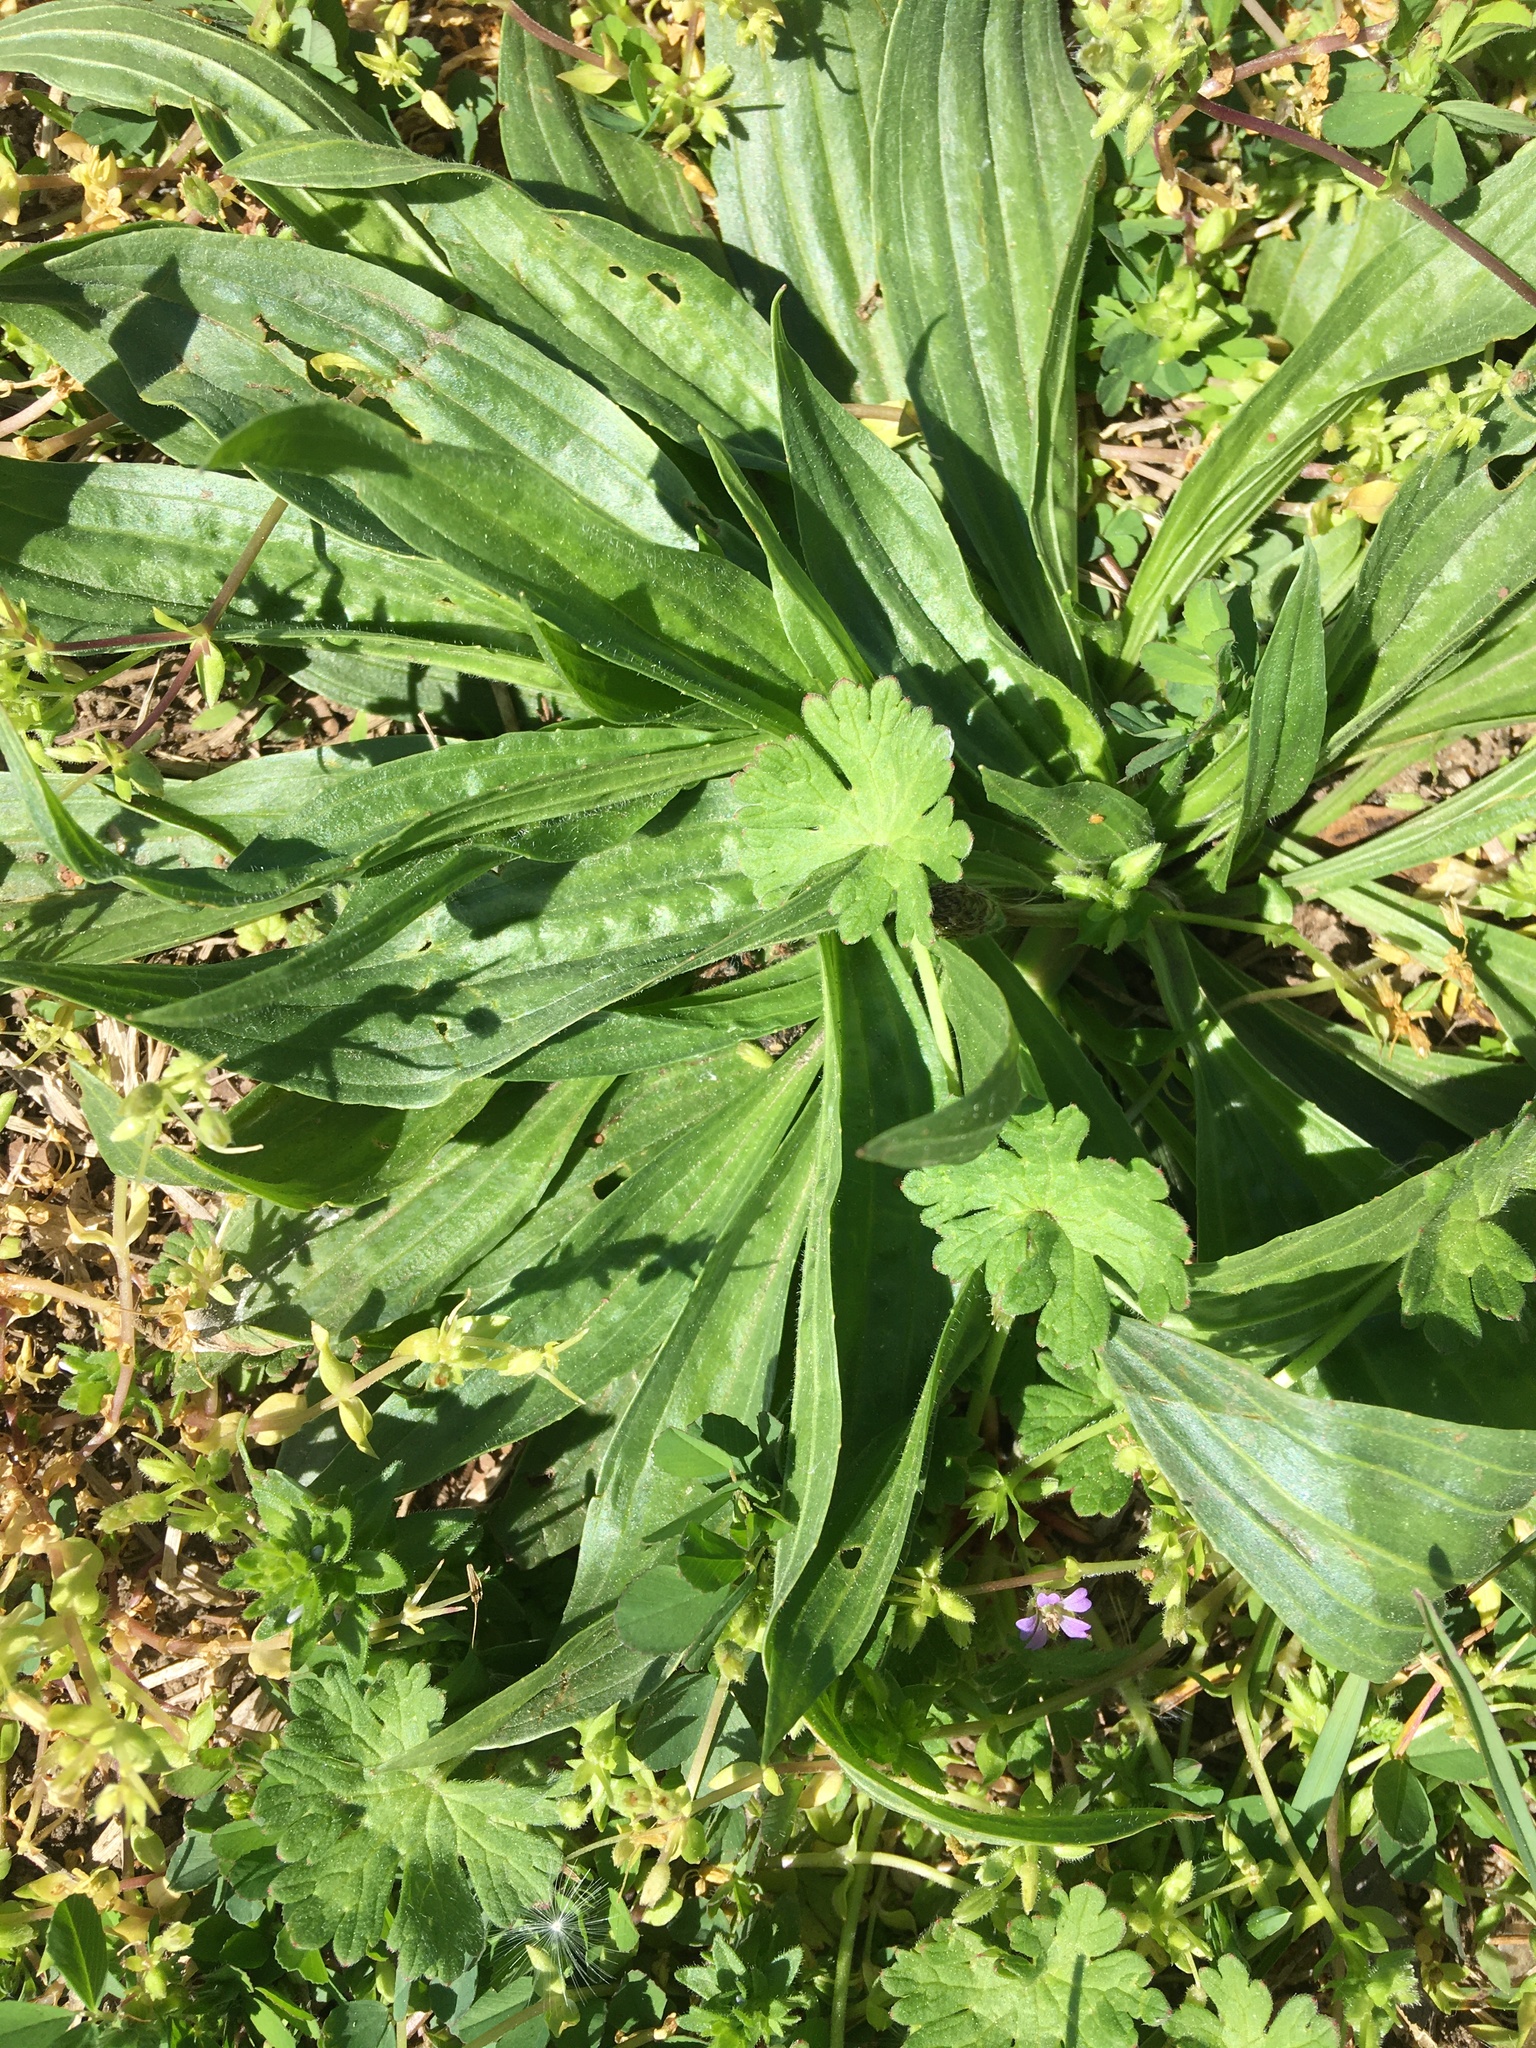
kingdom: Plantae
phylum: Tracheophyta
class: Magnoliopsida
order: Lamiales
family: Plantaginaceae
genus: Plantago
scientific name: Plantago lanceolata
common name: Ribwort plantain
